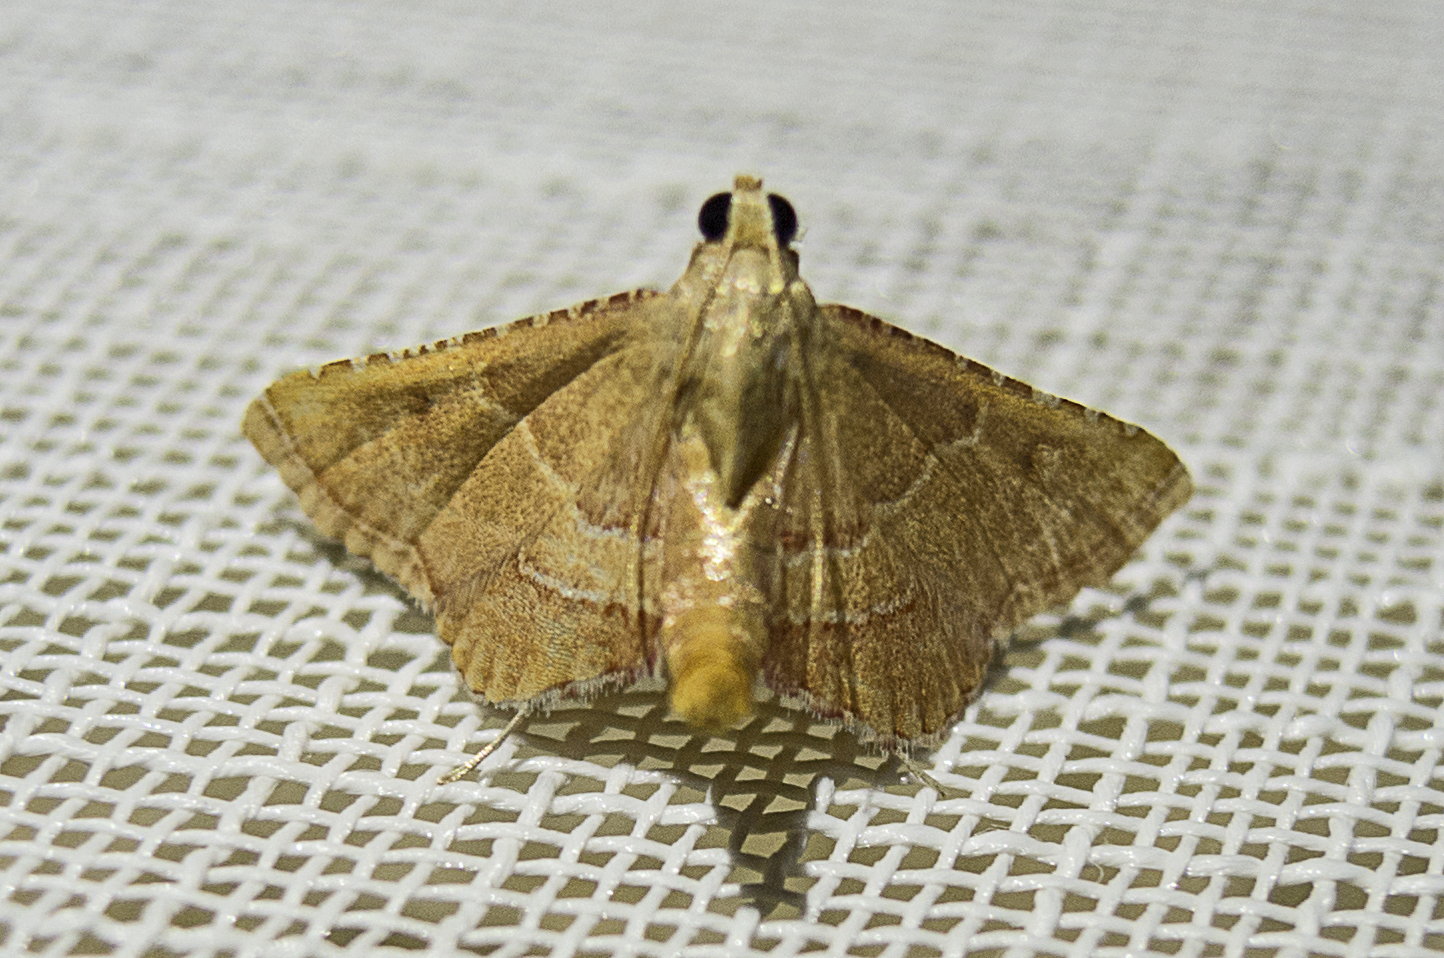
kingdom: Animalia
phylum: Arthropoda
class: Insecta
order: Lepidoptera
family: Pyralidae
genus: Endotricha
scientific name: Endotricha flammealis
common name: Rosy tabby
